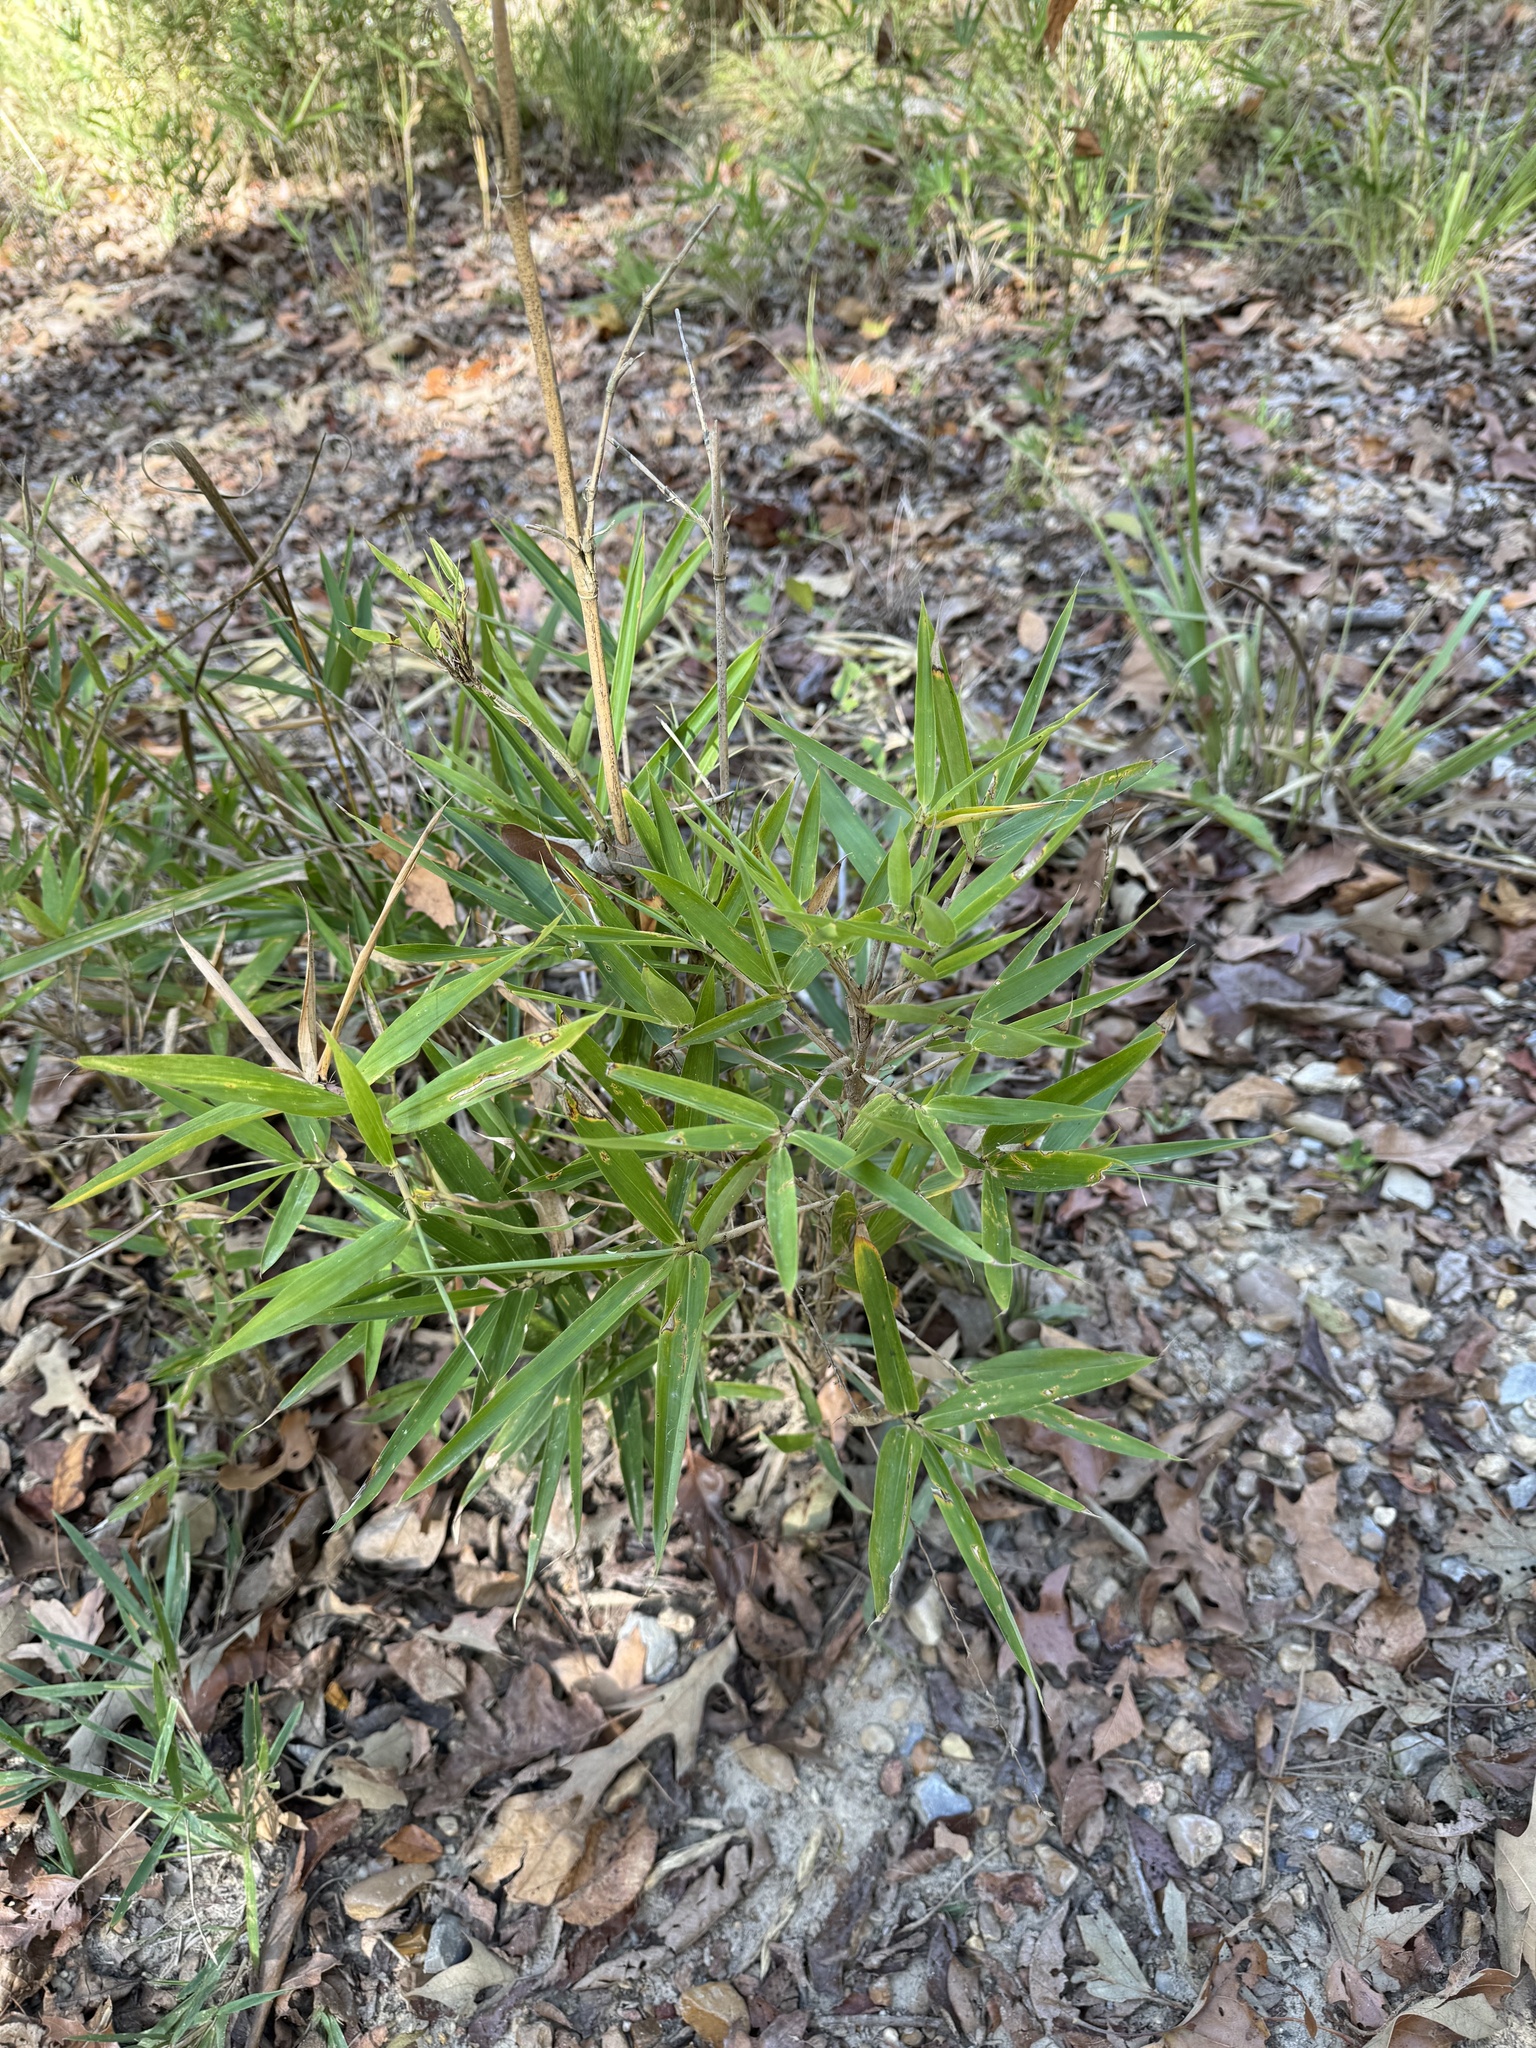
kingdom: Plantae
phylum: Tracheophyta
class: Liliopsida
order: Poales
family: Poaceae
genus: Arundinaria
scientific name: Arundinaria gigantea
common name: Giant cane
